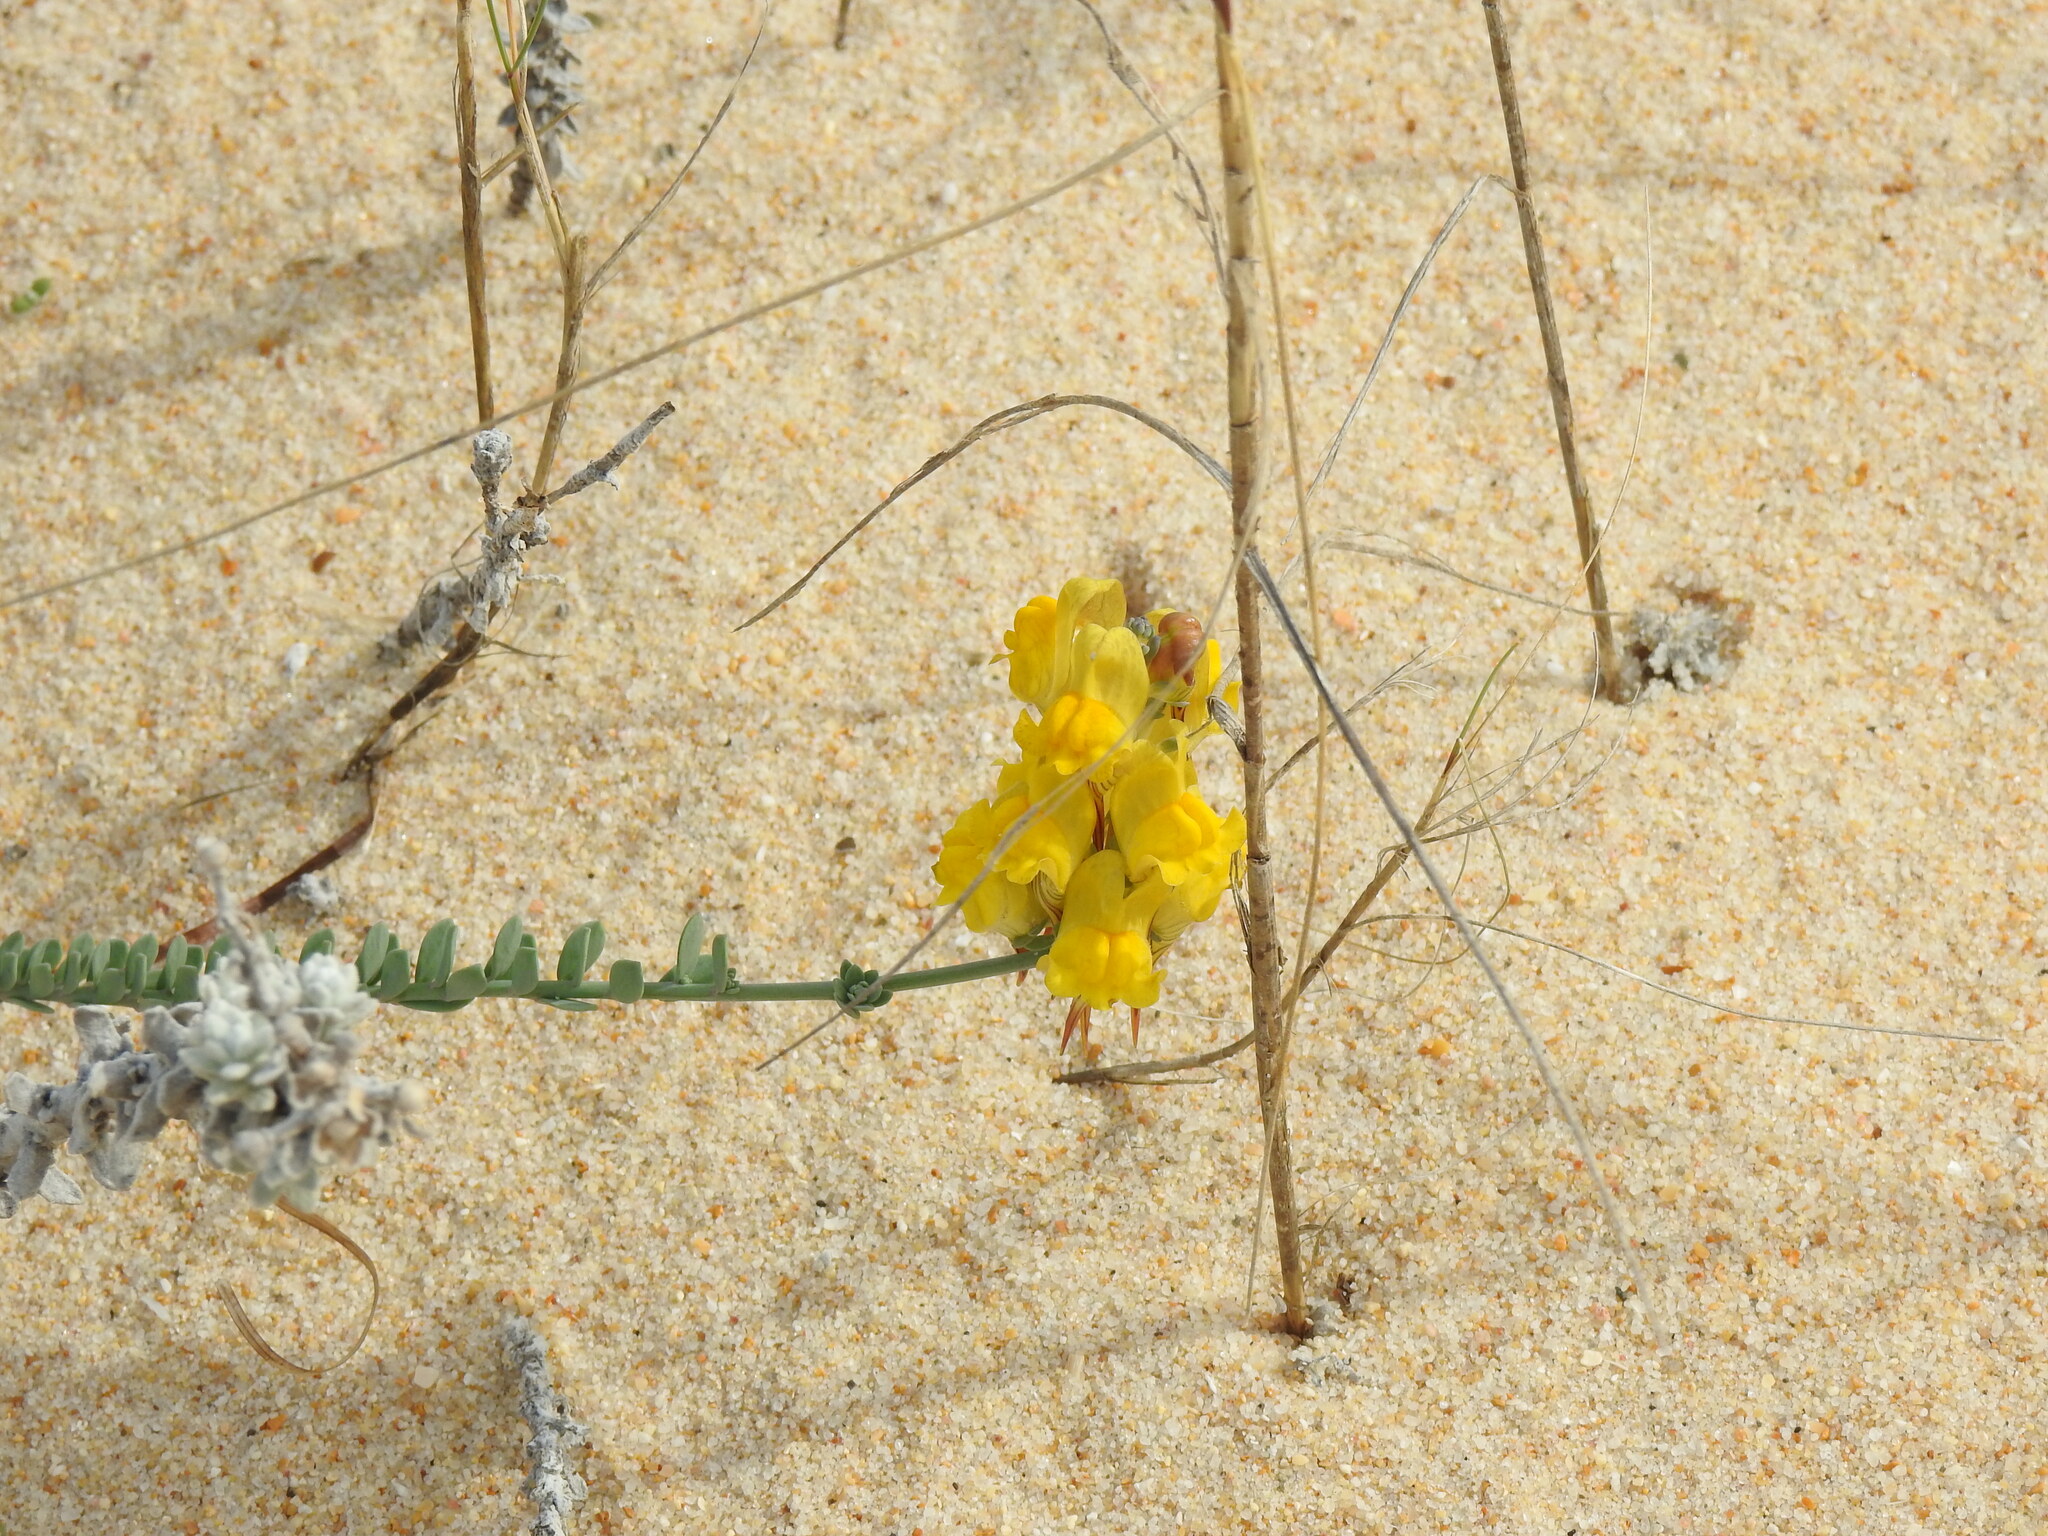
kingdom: Plantae
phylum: Tracheophyta
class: Magnoliopsida
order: Lamiales
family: Plantaginaceae
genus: Linaria
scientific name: Linaria polygalifolia
